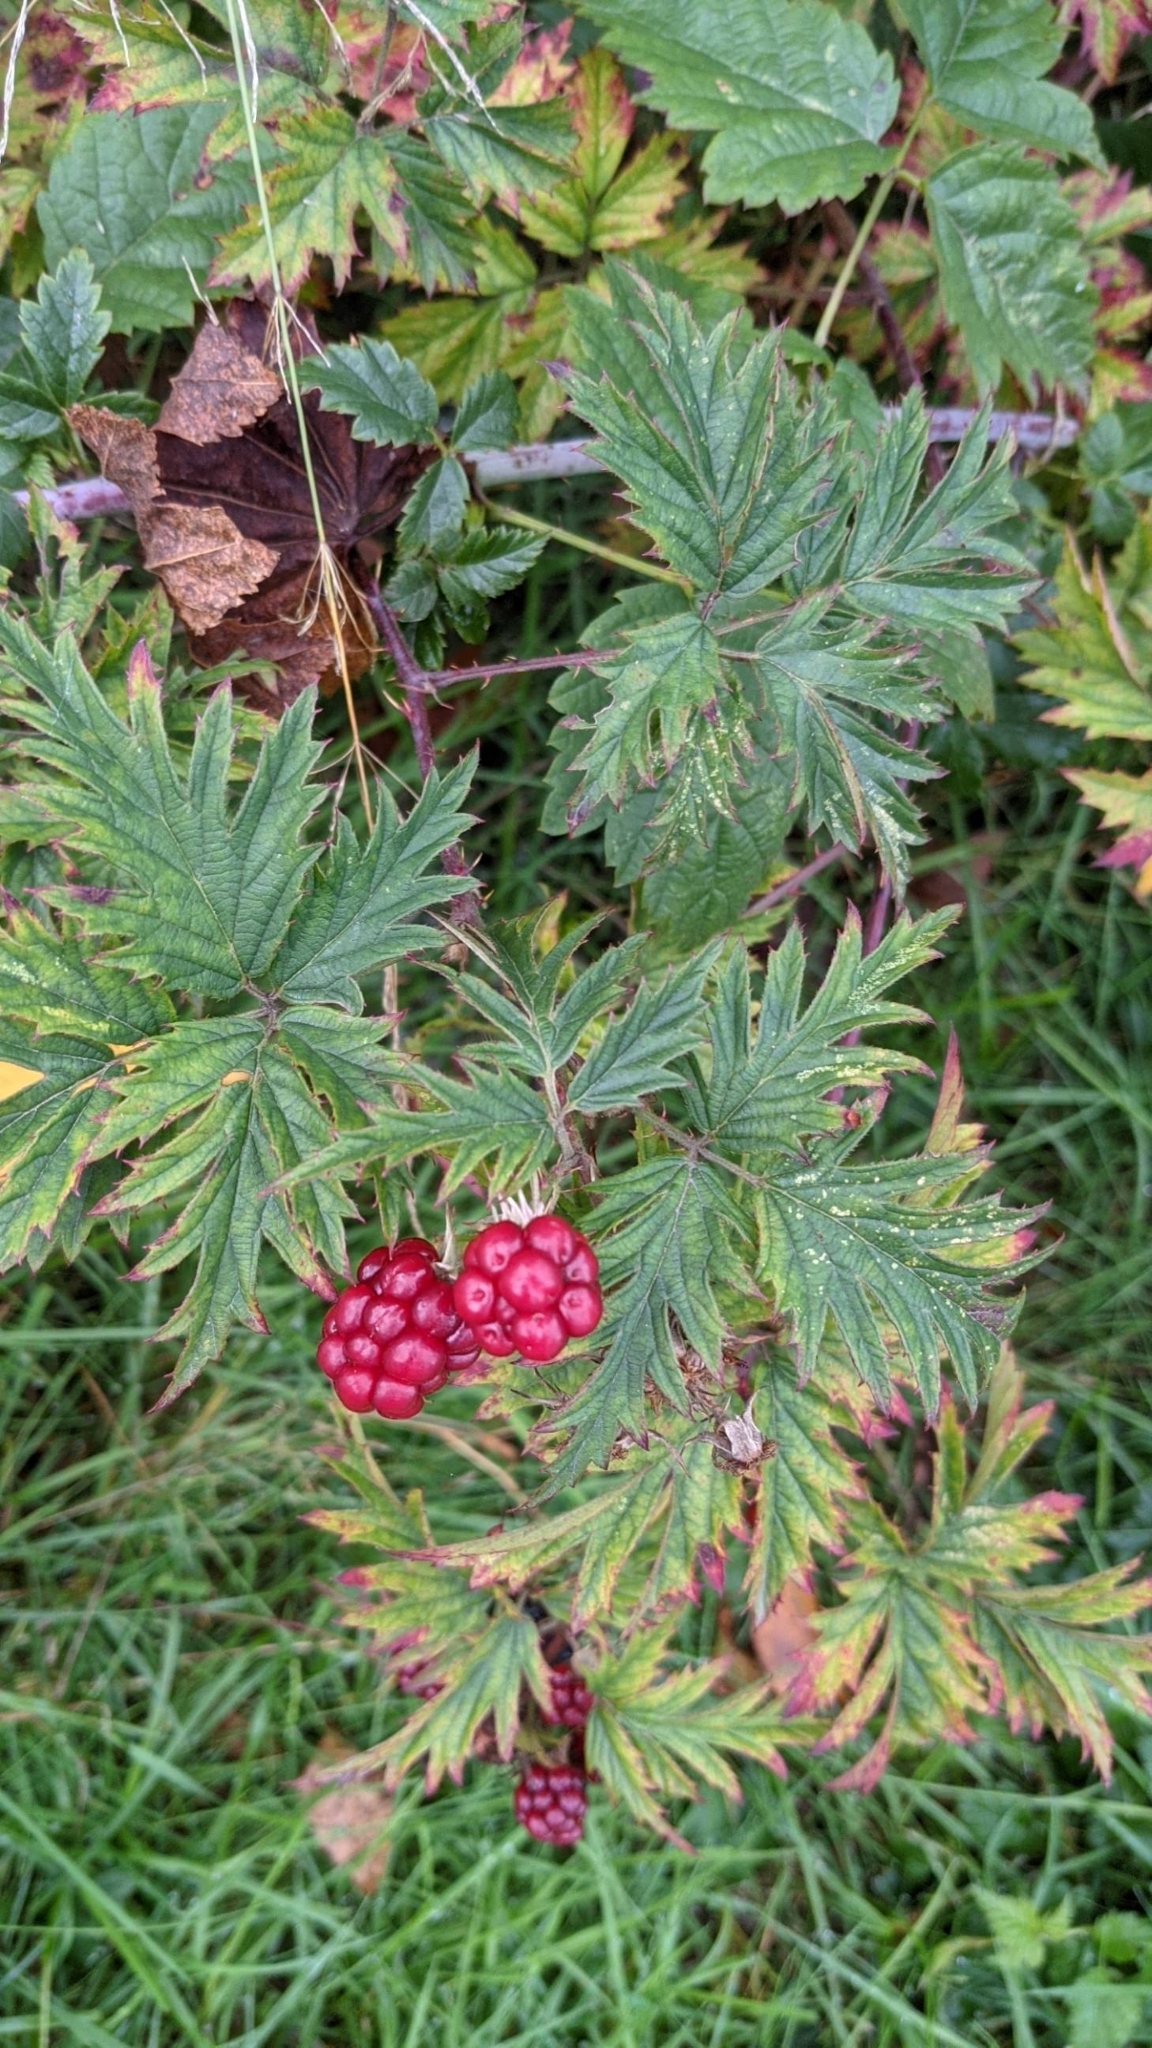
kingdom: Plantae
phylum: Tracheophyta
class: Magnoliopsida
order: Rosales
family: Rosaceae
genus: Rubus
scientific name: Rubus laciniatus
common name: Evergreen blackberry
